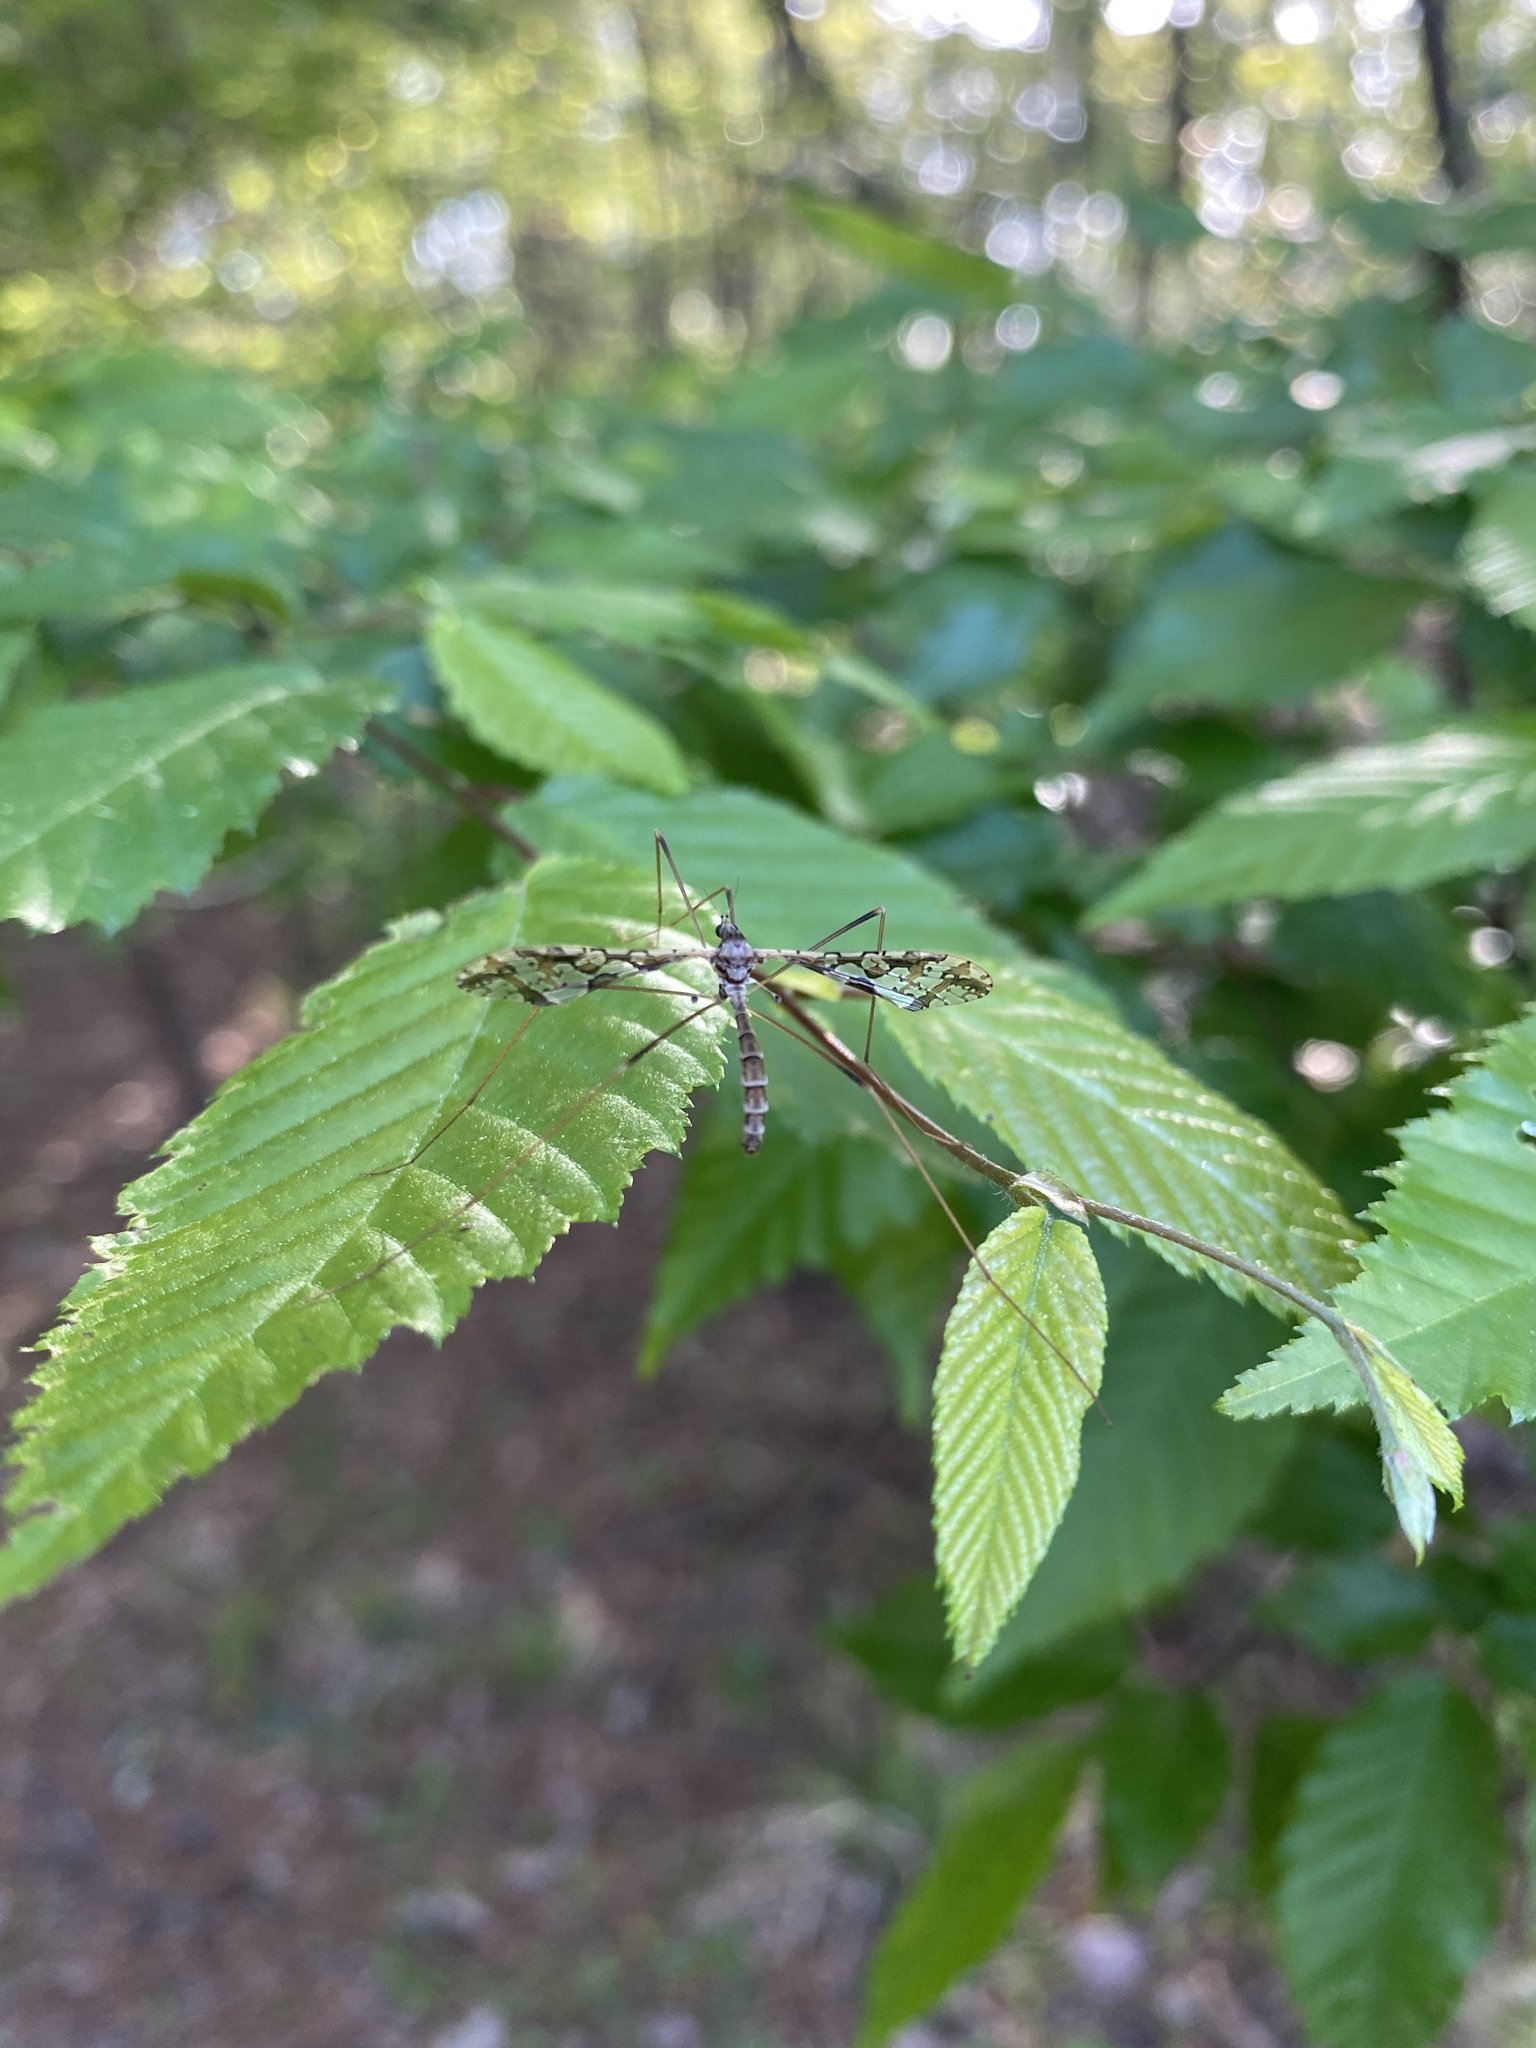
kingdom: Animalia
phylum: Arthropoda
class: Insecta
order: Diptera
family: Limoniidae
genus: Epiphragma
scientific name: Epiphragma solatrix
